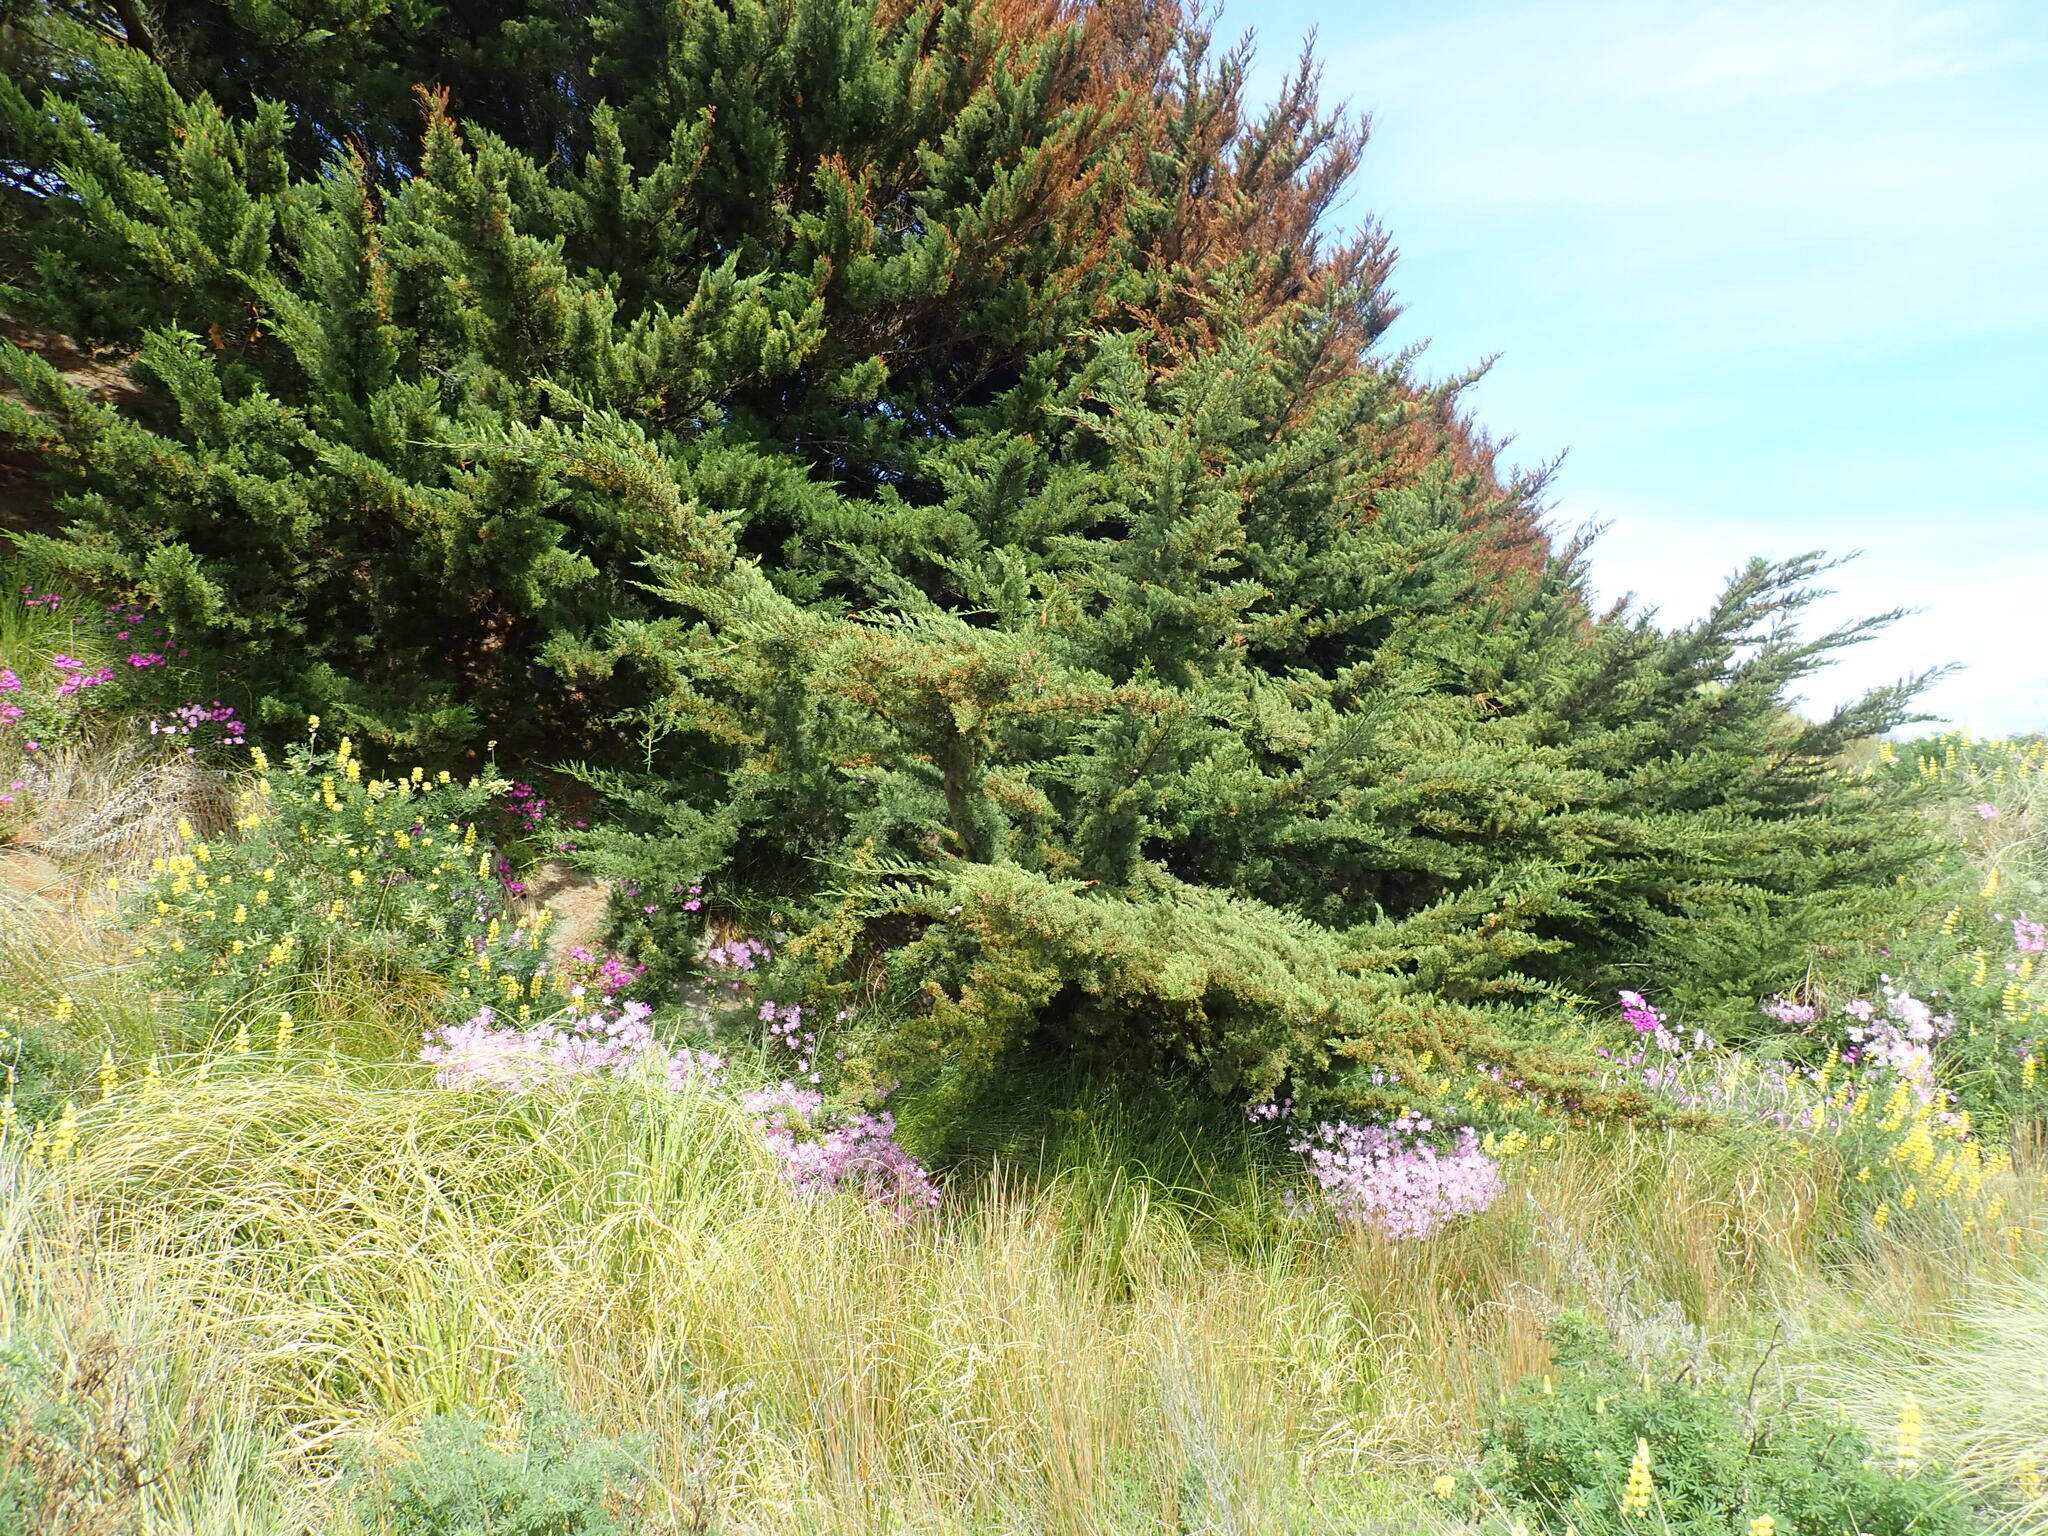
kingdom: Plantae
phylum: Tracheophyta
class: Pinopsida
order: Pinales
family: Cupressaceae
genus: Cupressus
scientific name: Cupressus macrocarpa
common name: Monterey cypress
